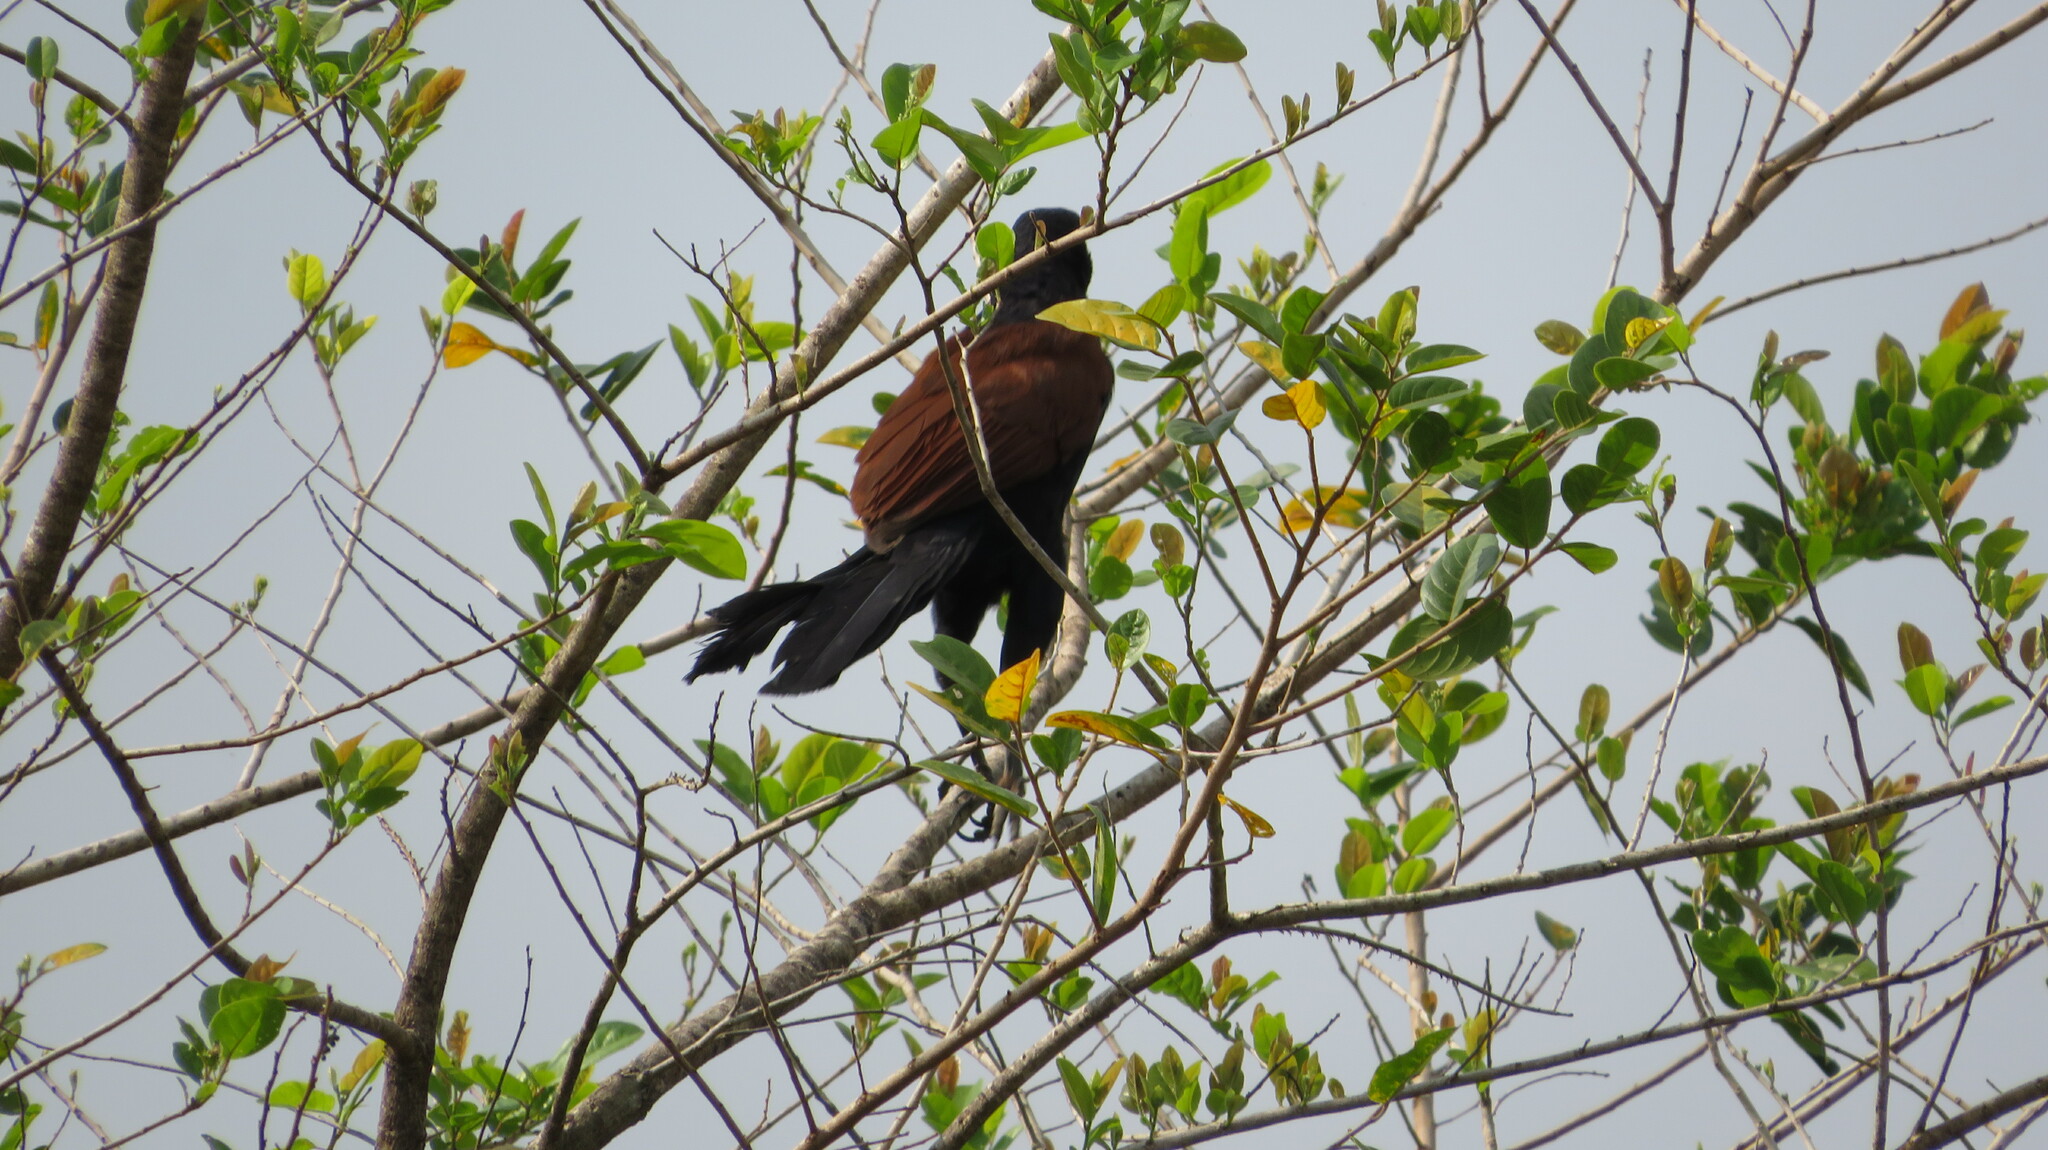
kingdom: Animalia
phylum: Chordata
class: Aves
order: Cuculiformes
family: Cuculidae
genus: Centropus
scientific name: Centropus sinensis
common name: Greater coucal
